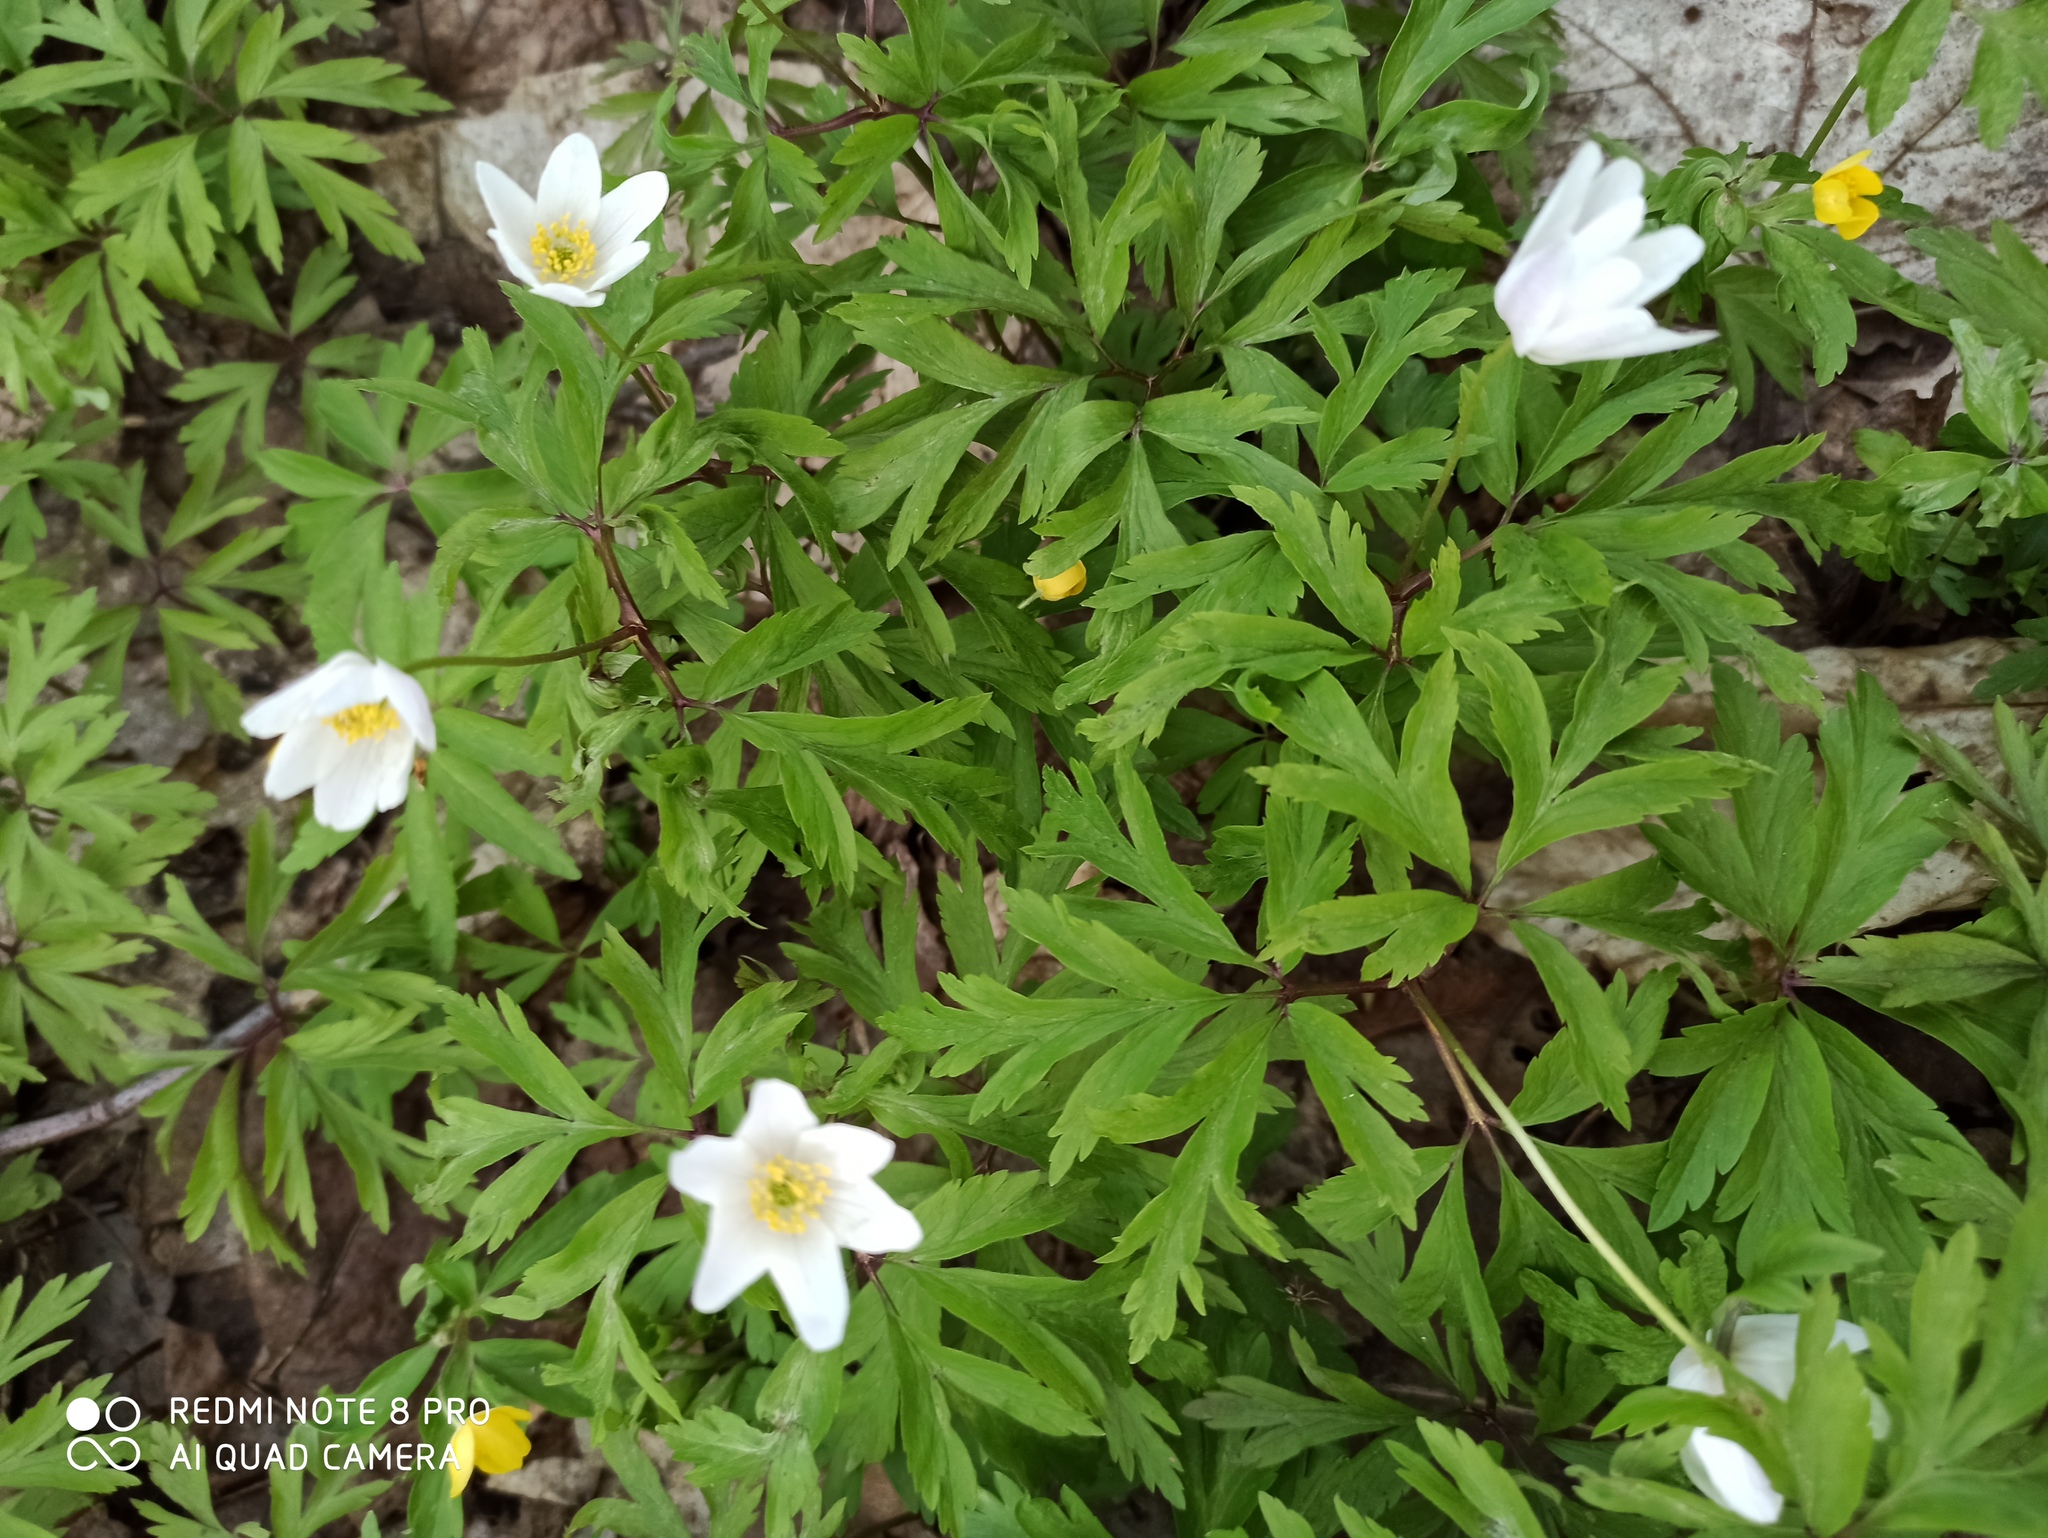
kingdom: Plantae
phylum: Tracheophyta
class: Magnoliopsida
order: Ranunculales
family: Ranunculaceae
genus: Anemone
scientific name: Anemone nemorosa
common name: Wood anemone
